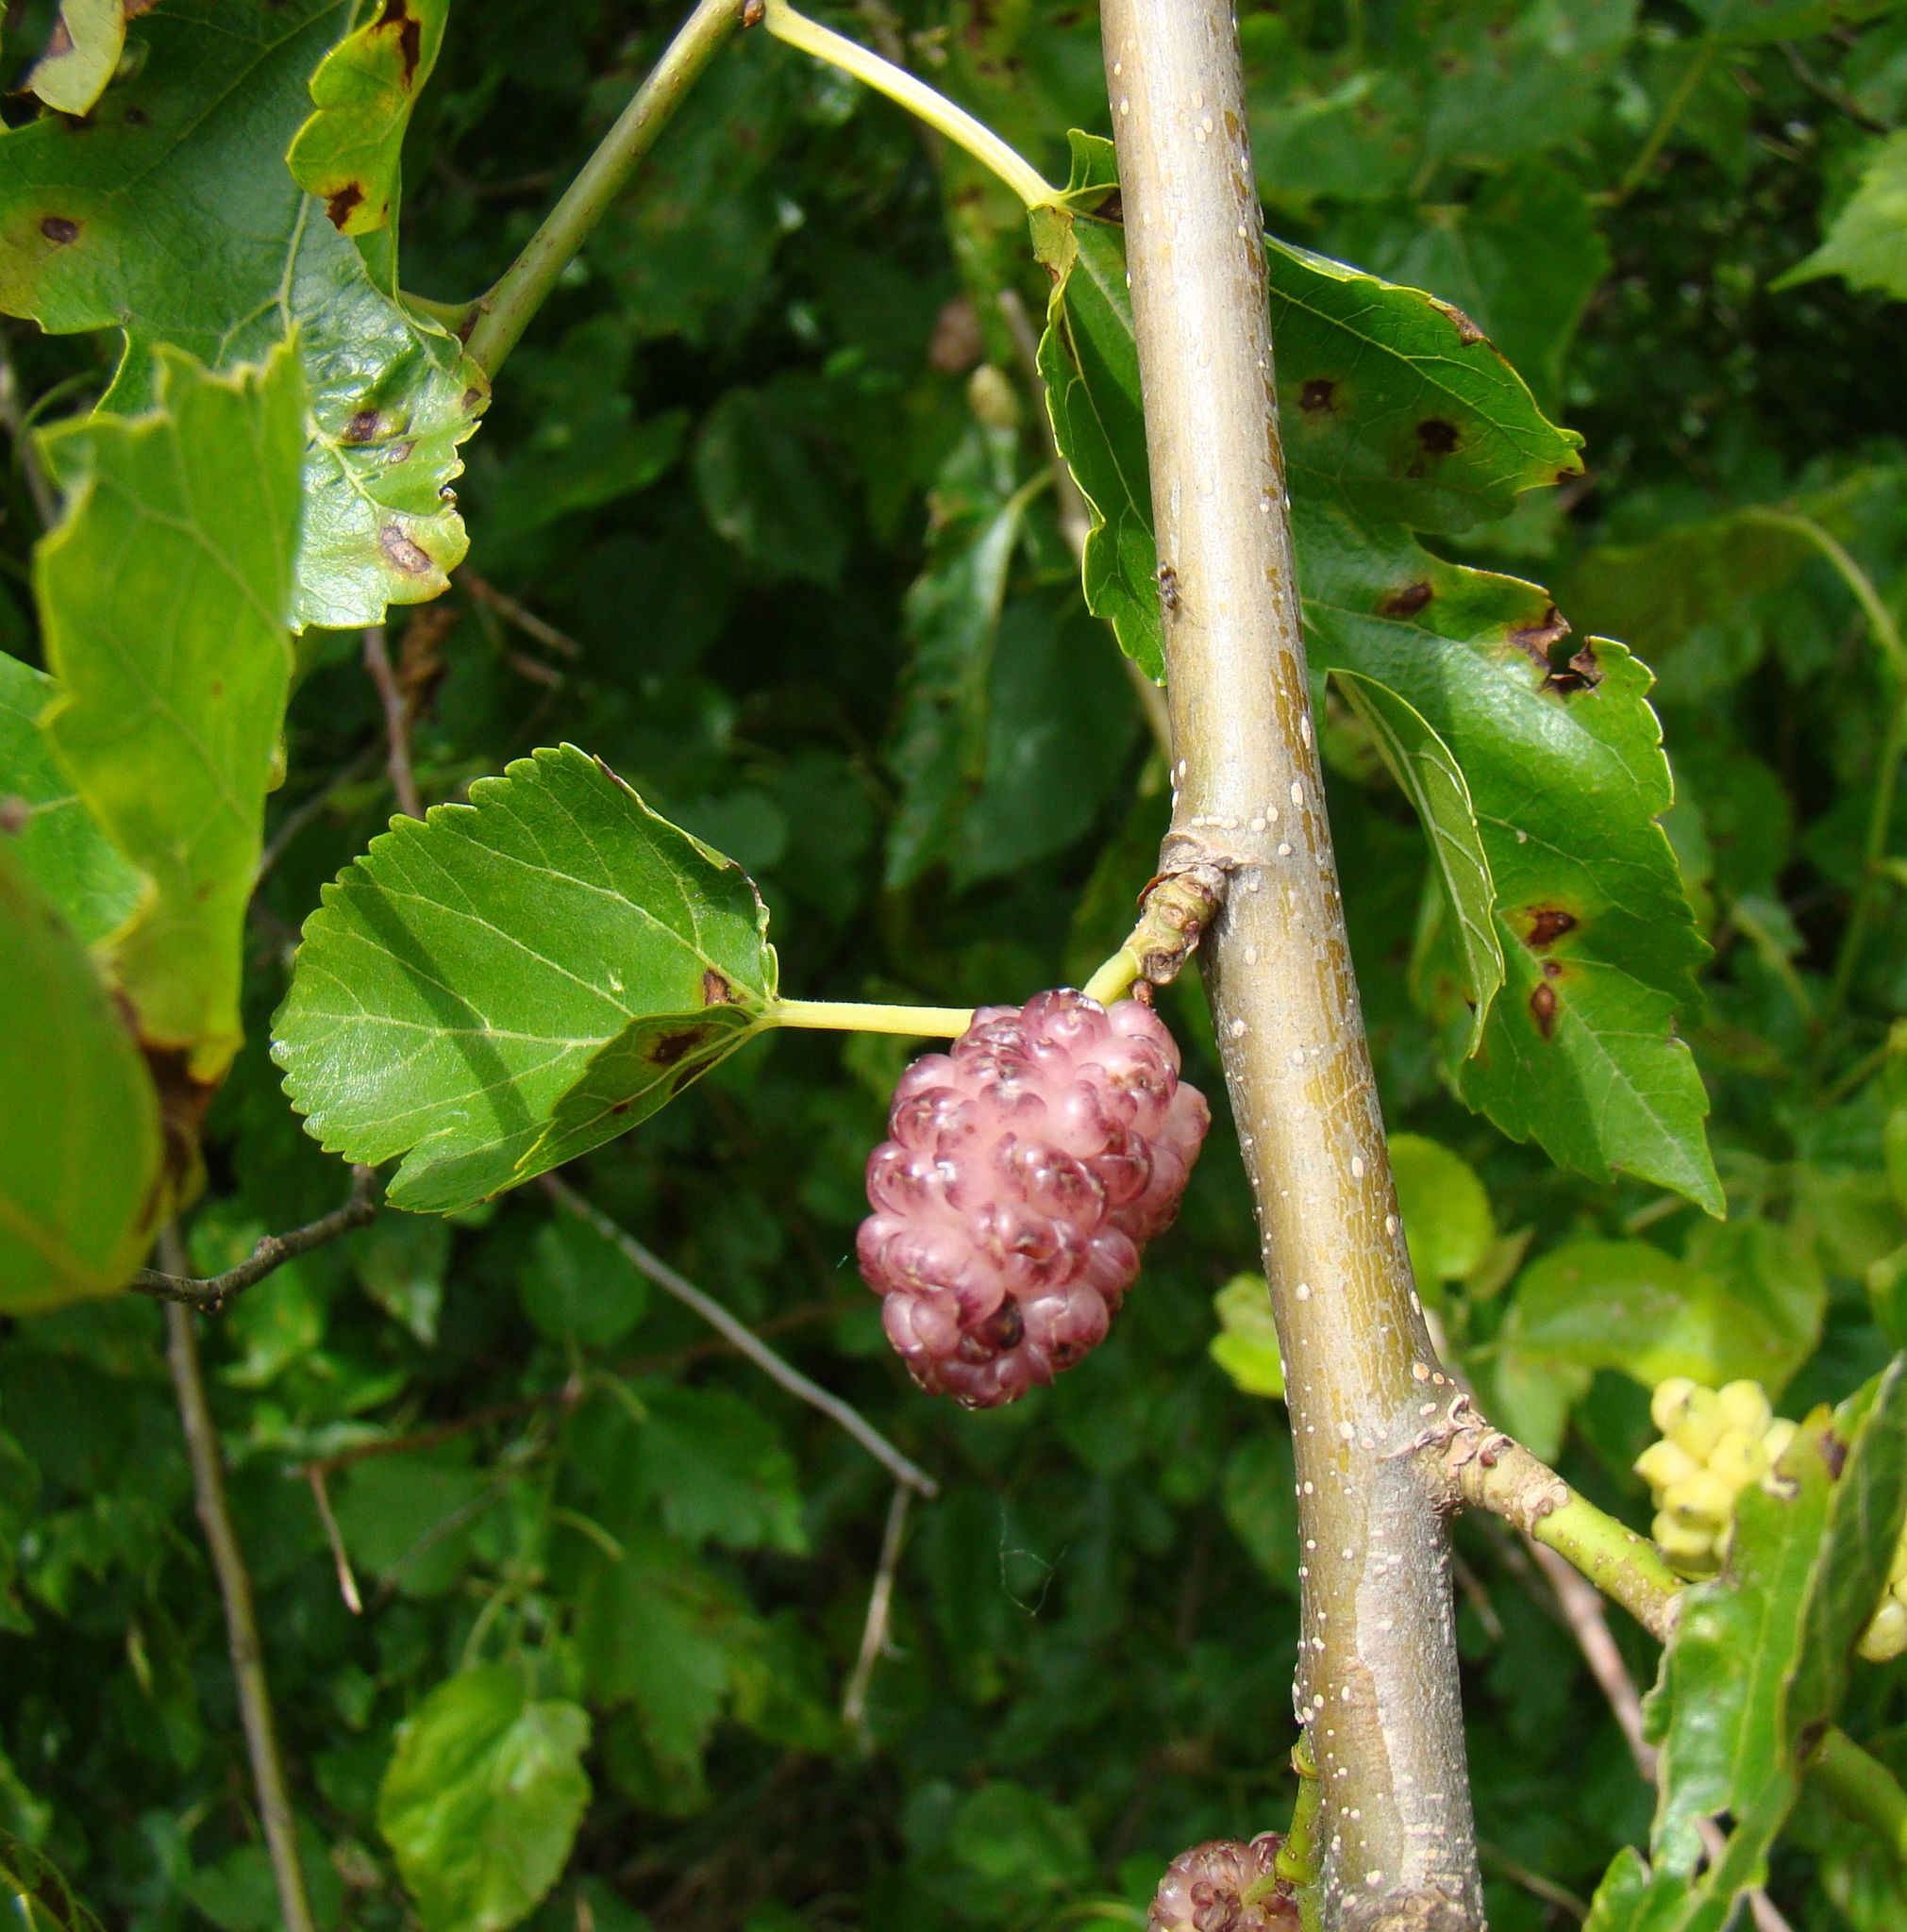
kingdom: Plantae
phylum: Tracheophyta
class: Magnoliopsida
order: Rosales
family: Moraceae
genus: Morus
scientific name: Morus alba
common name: White mulberry
